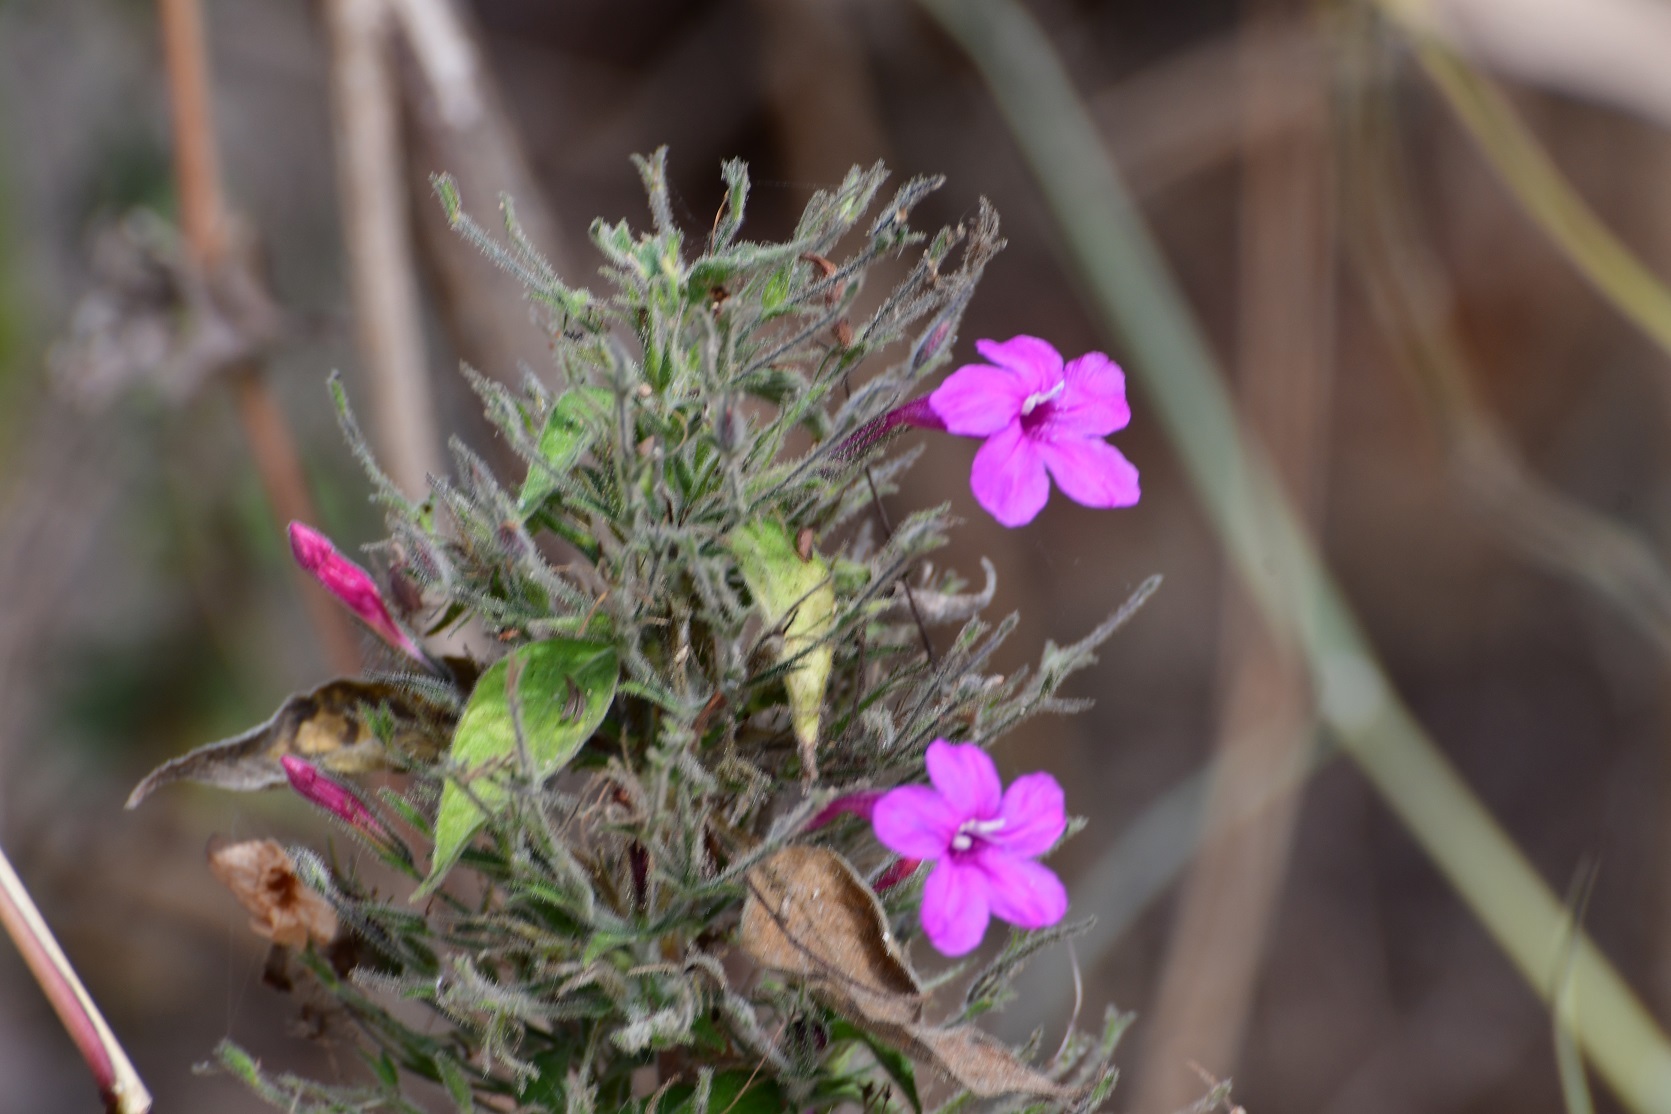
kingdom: Plantae
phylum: Tracheophyta
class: Magnoliopsida
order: Lamiales
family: Acanthaceae
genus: Ruellia
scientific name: Ruellia inundata
